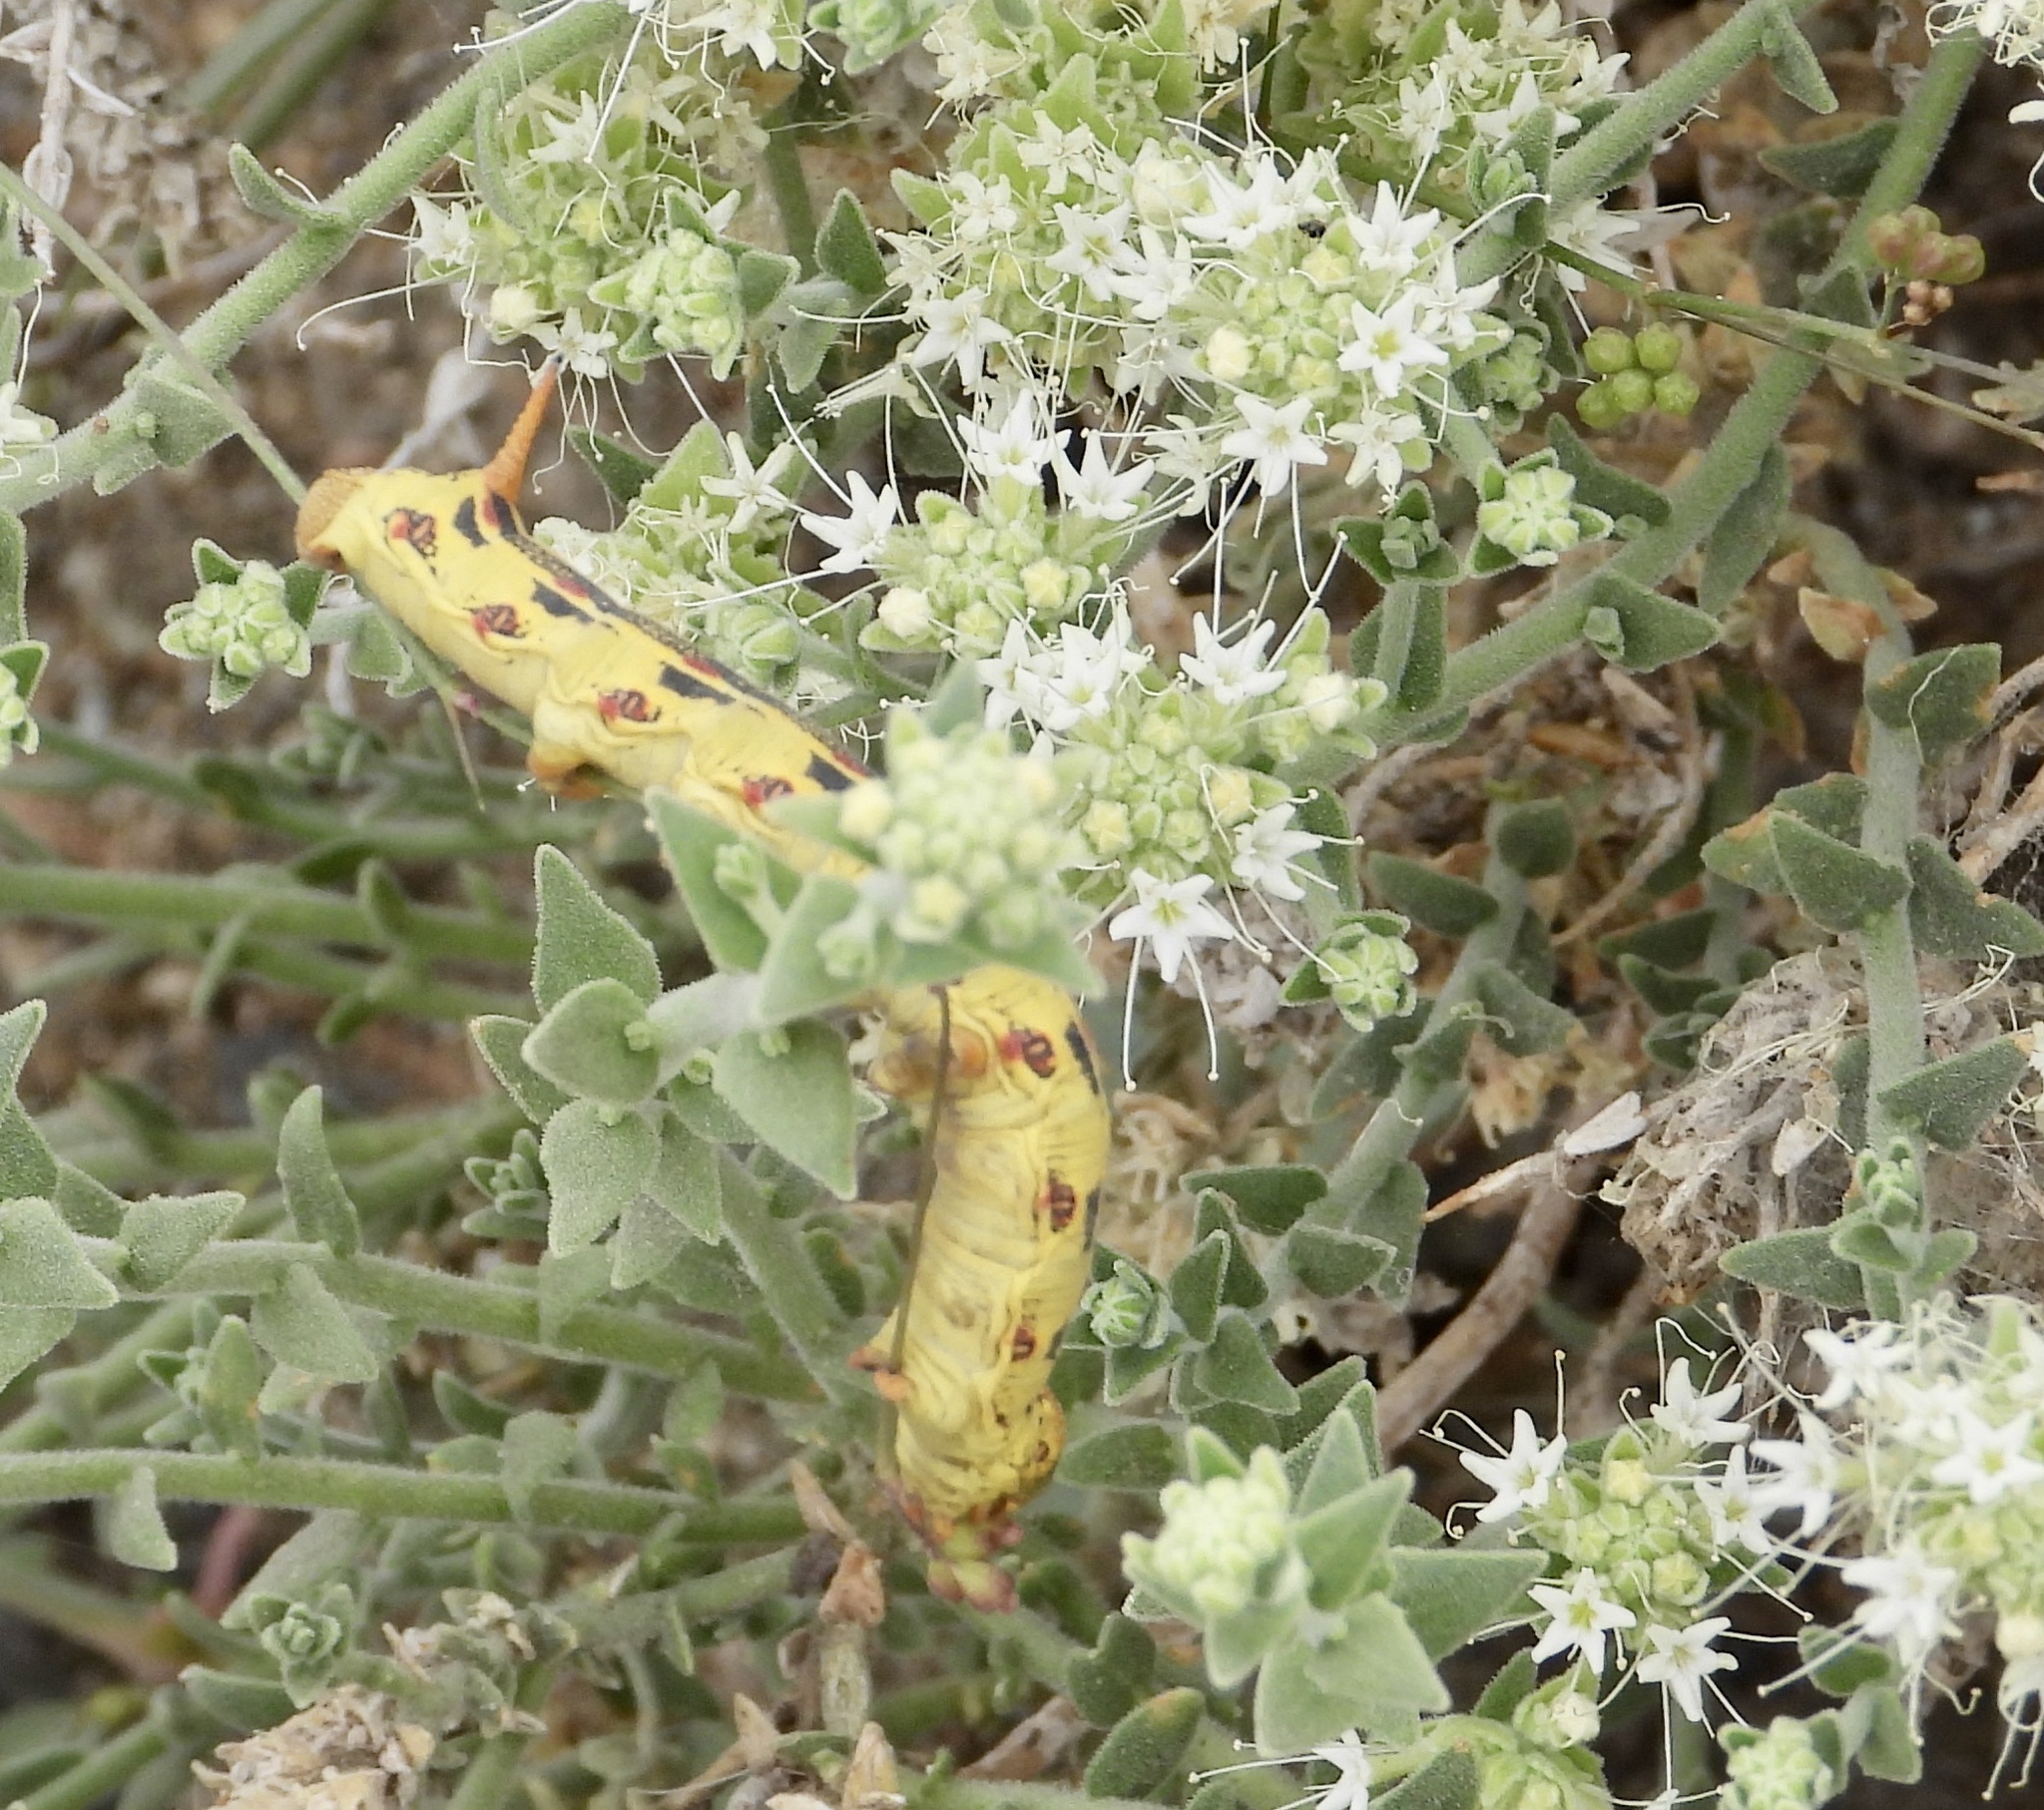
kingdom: Animalia
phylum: Arthropoda
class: Insecta
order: Lepidoptera
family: Sphingidae
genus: Hyles
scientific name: Hyles lineata
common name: White-lined sphinx
